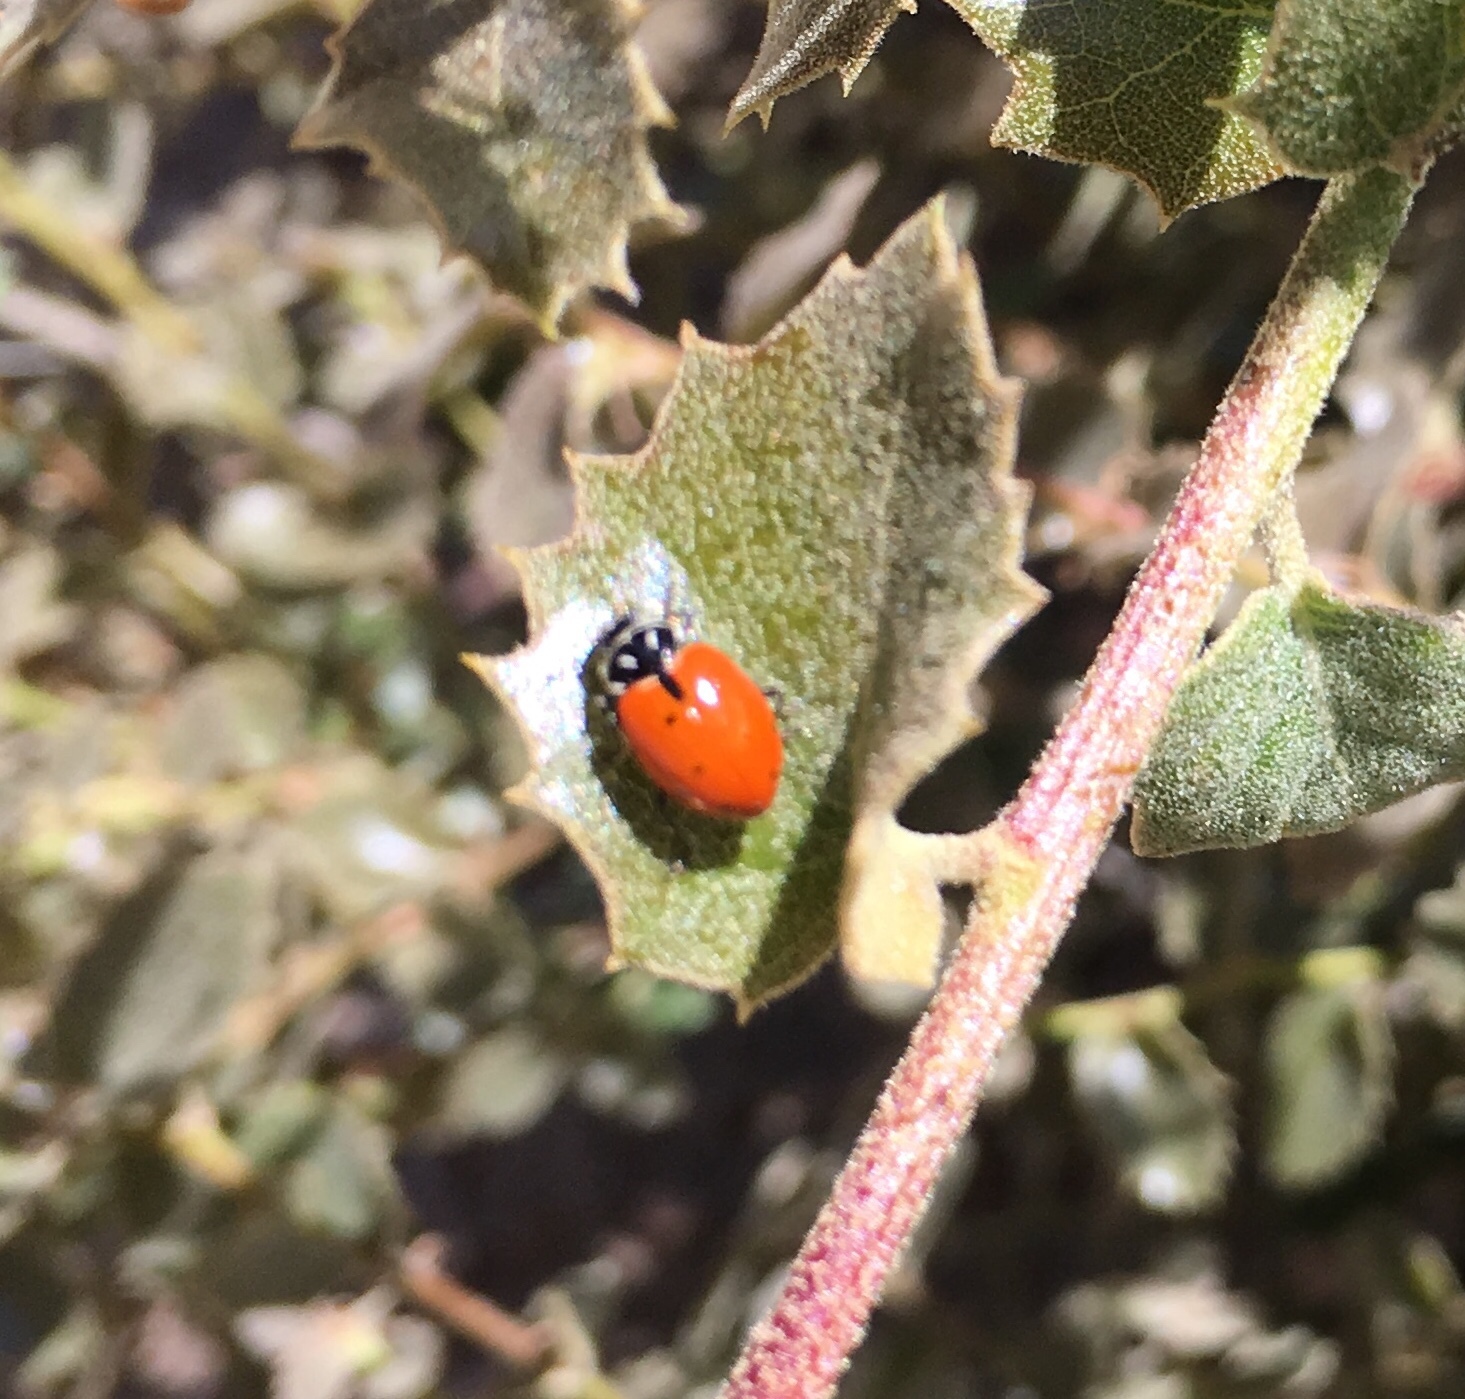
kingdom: Animalia
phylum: Arthropoda
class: Insecta
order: Coleoptera
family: Coccinellidae
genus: Hippodamia
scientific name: Hippodamia convergens
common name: Convergent lady beetle
